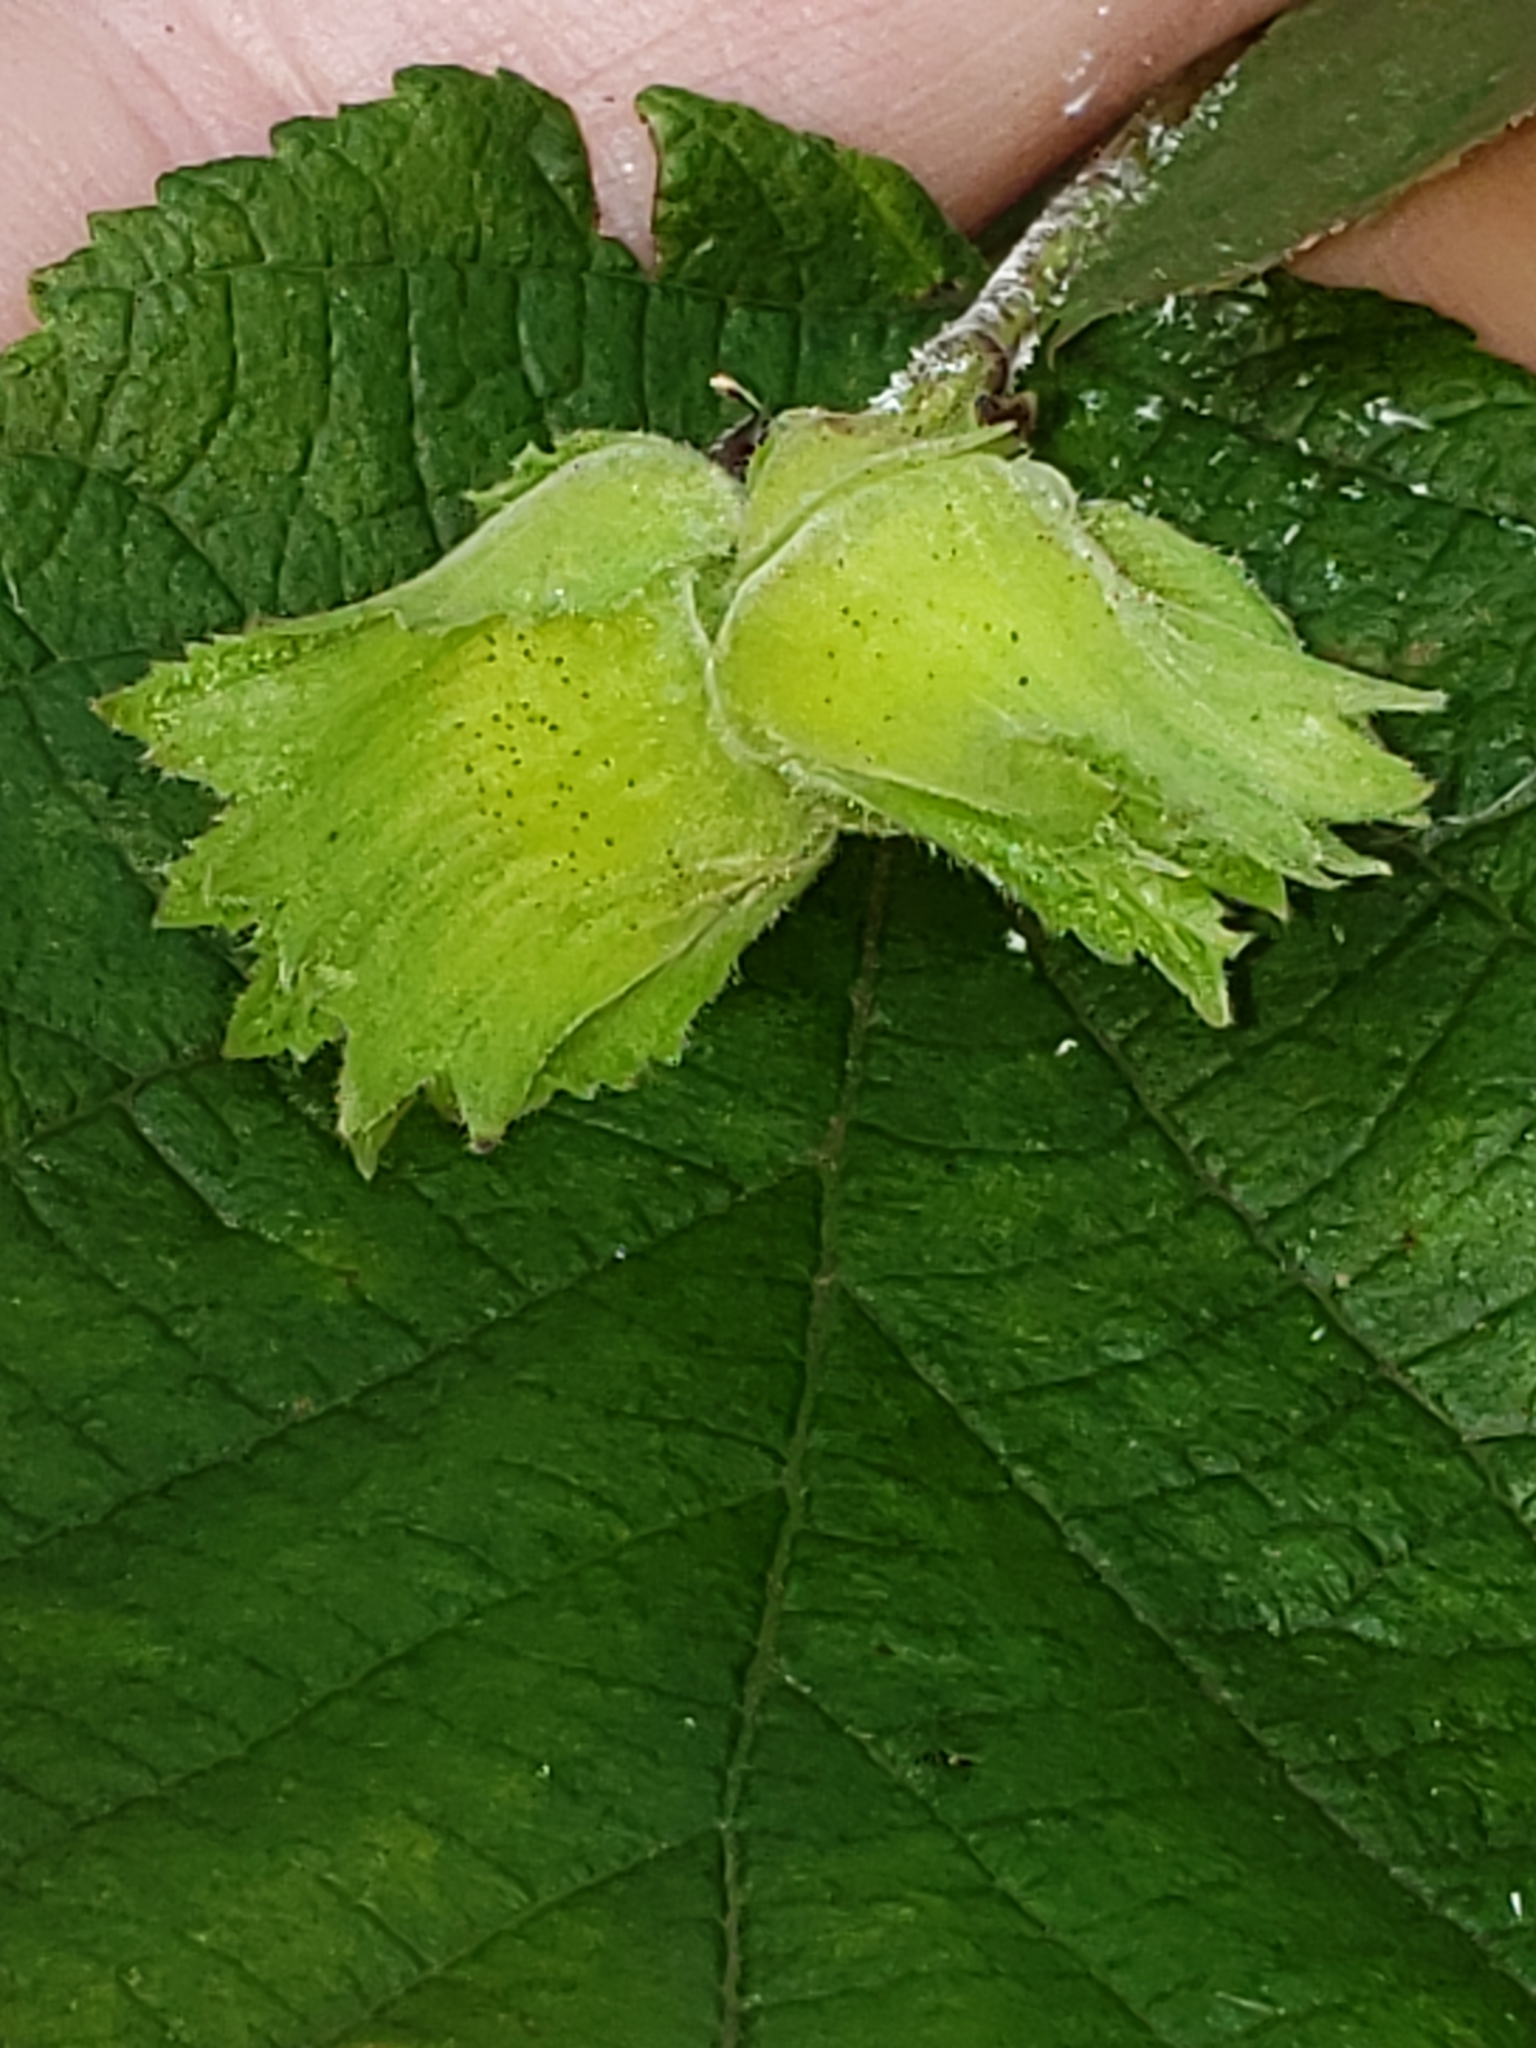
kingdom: Plantae
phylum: Tracheophyta
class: Magnoliopsida
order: Fagales
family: Betulaceae
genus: Corylus
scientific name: Corylus americana
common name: American hazel
